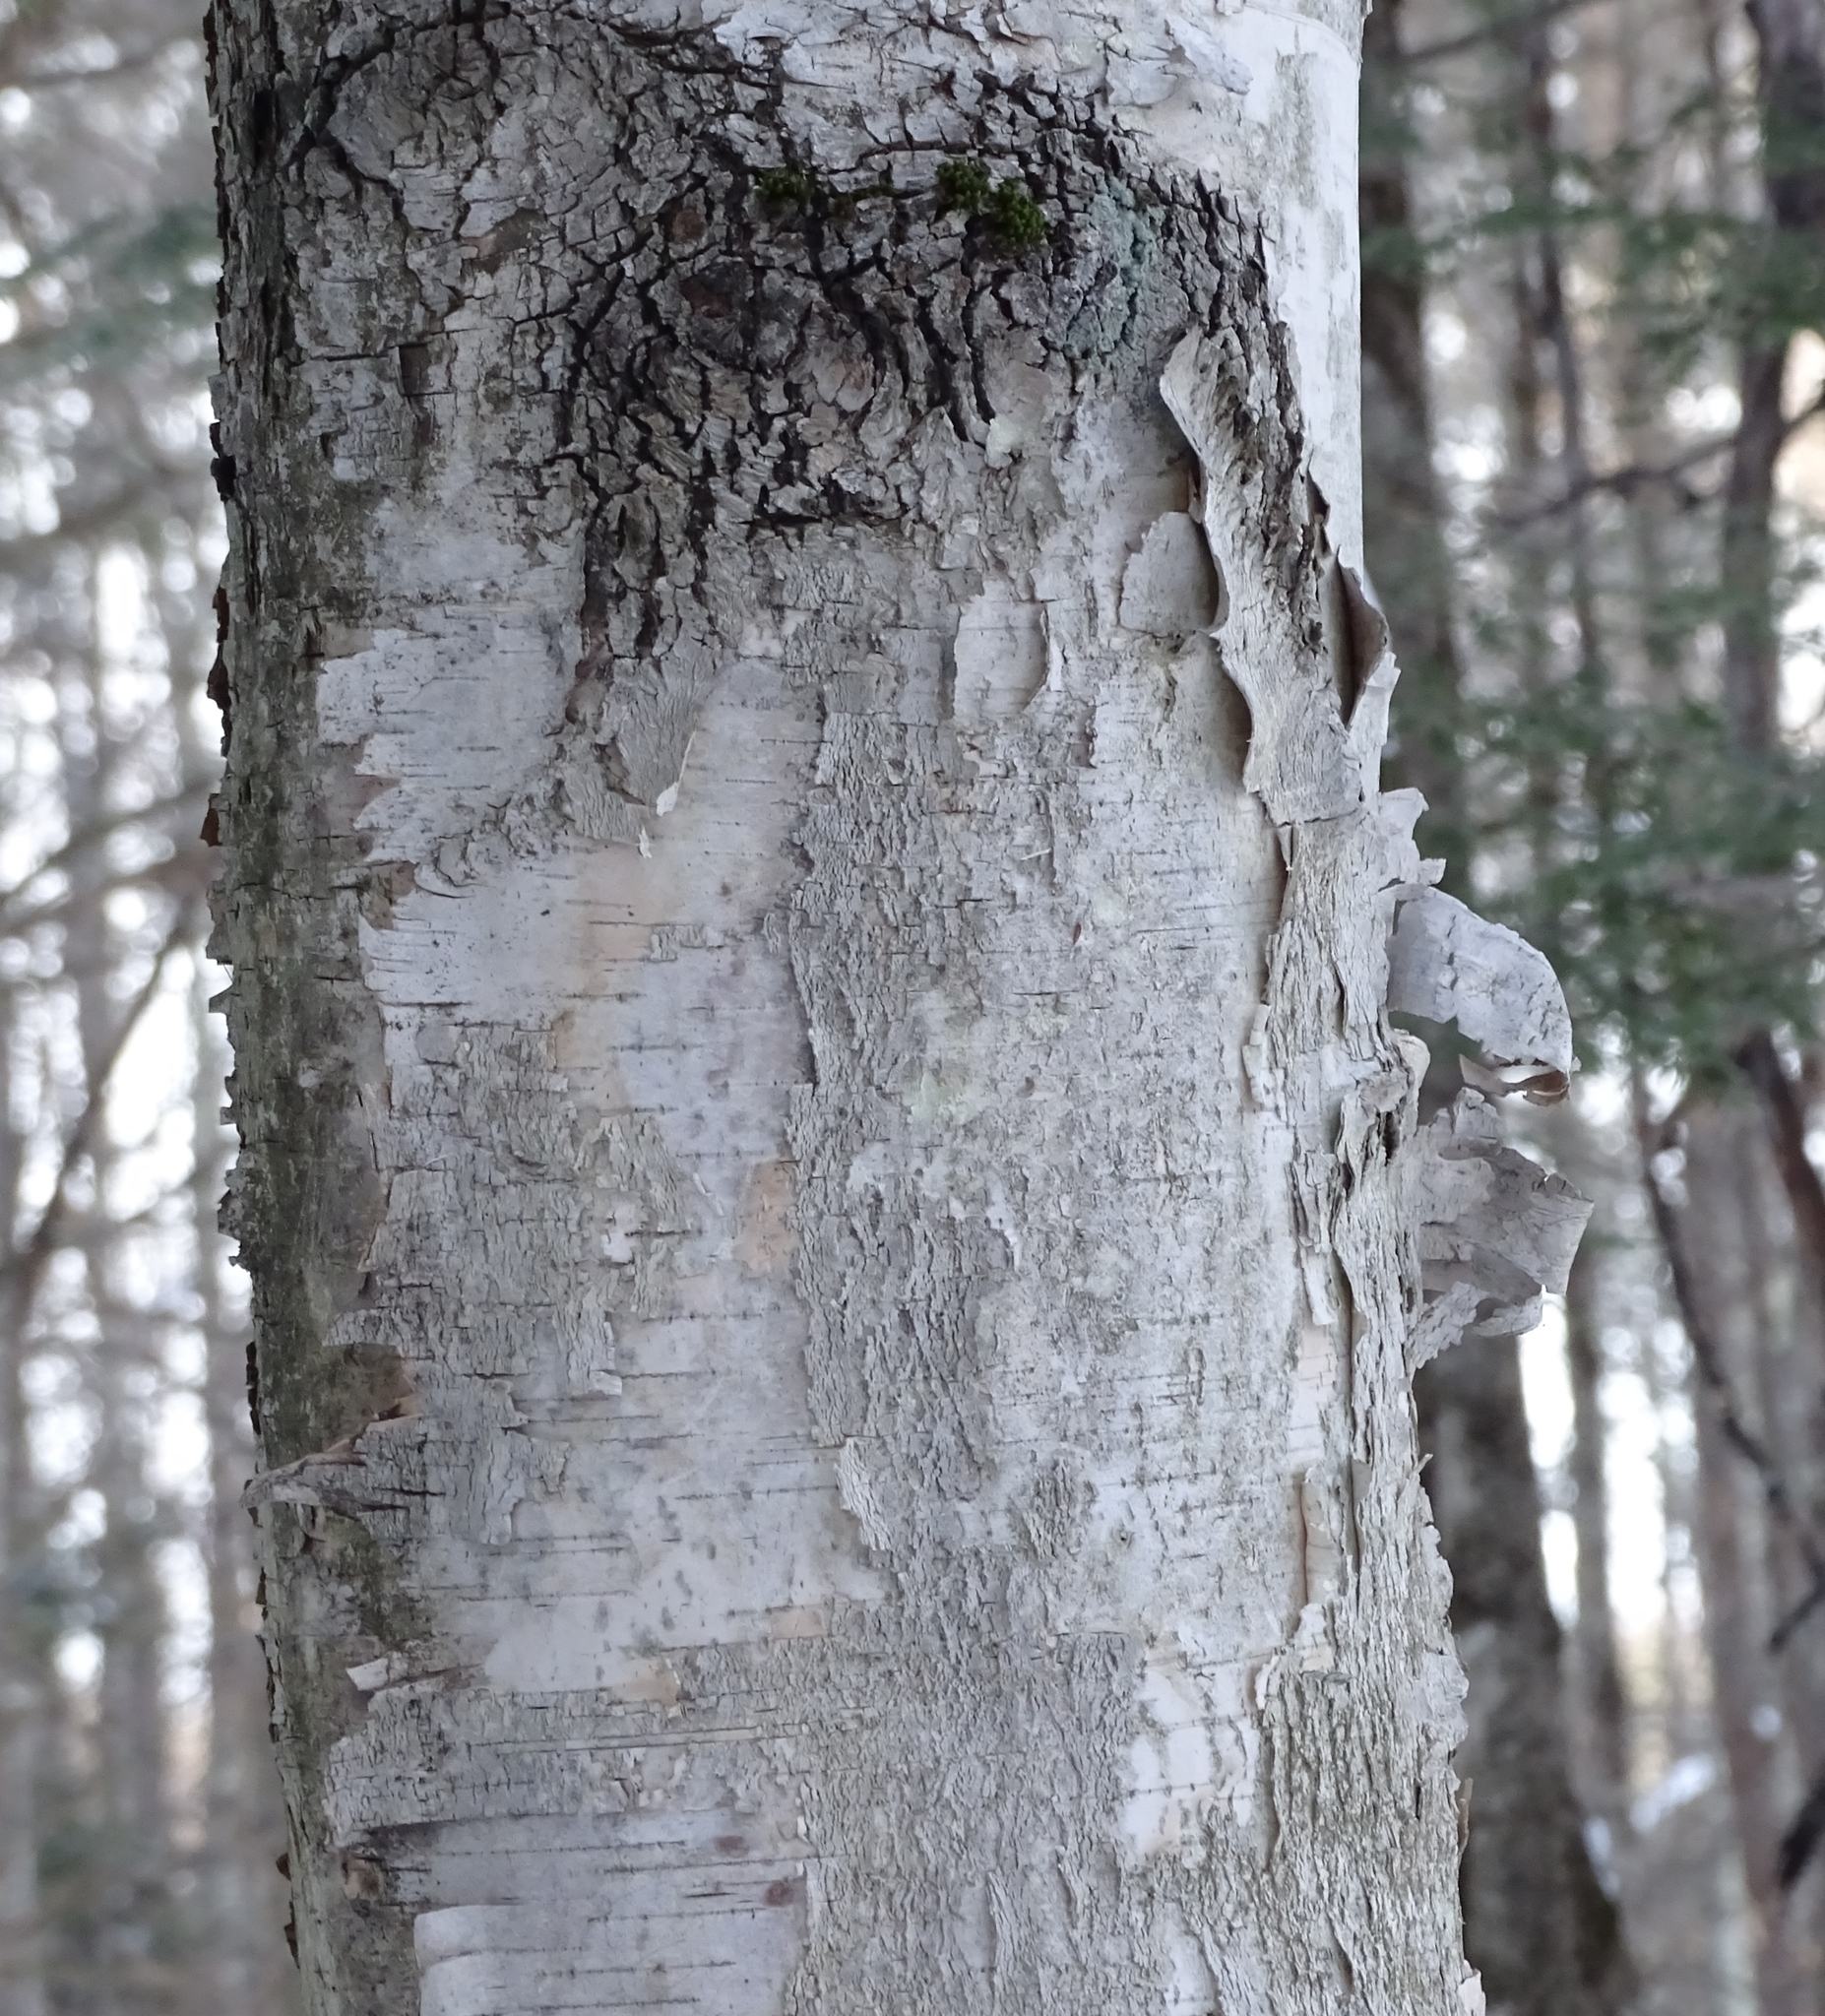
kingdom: Plantae
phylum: Tracheophyta
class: Magnoliopsida
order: Fagales
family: Betulaceae
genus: Betula
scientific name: Betula papyrifera
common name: Paper birch
